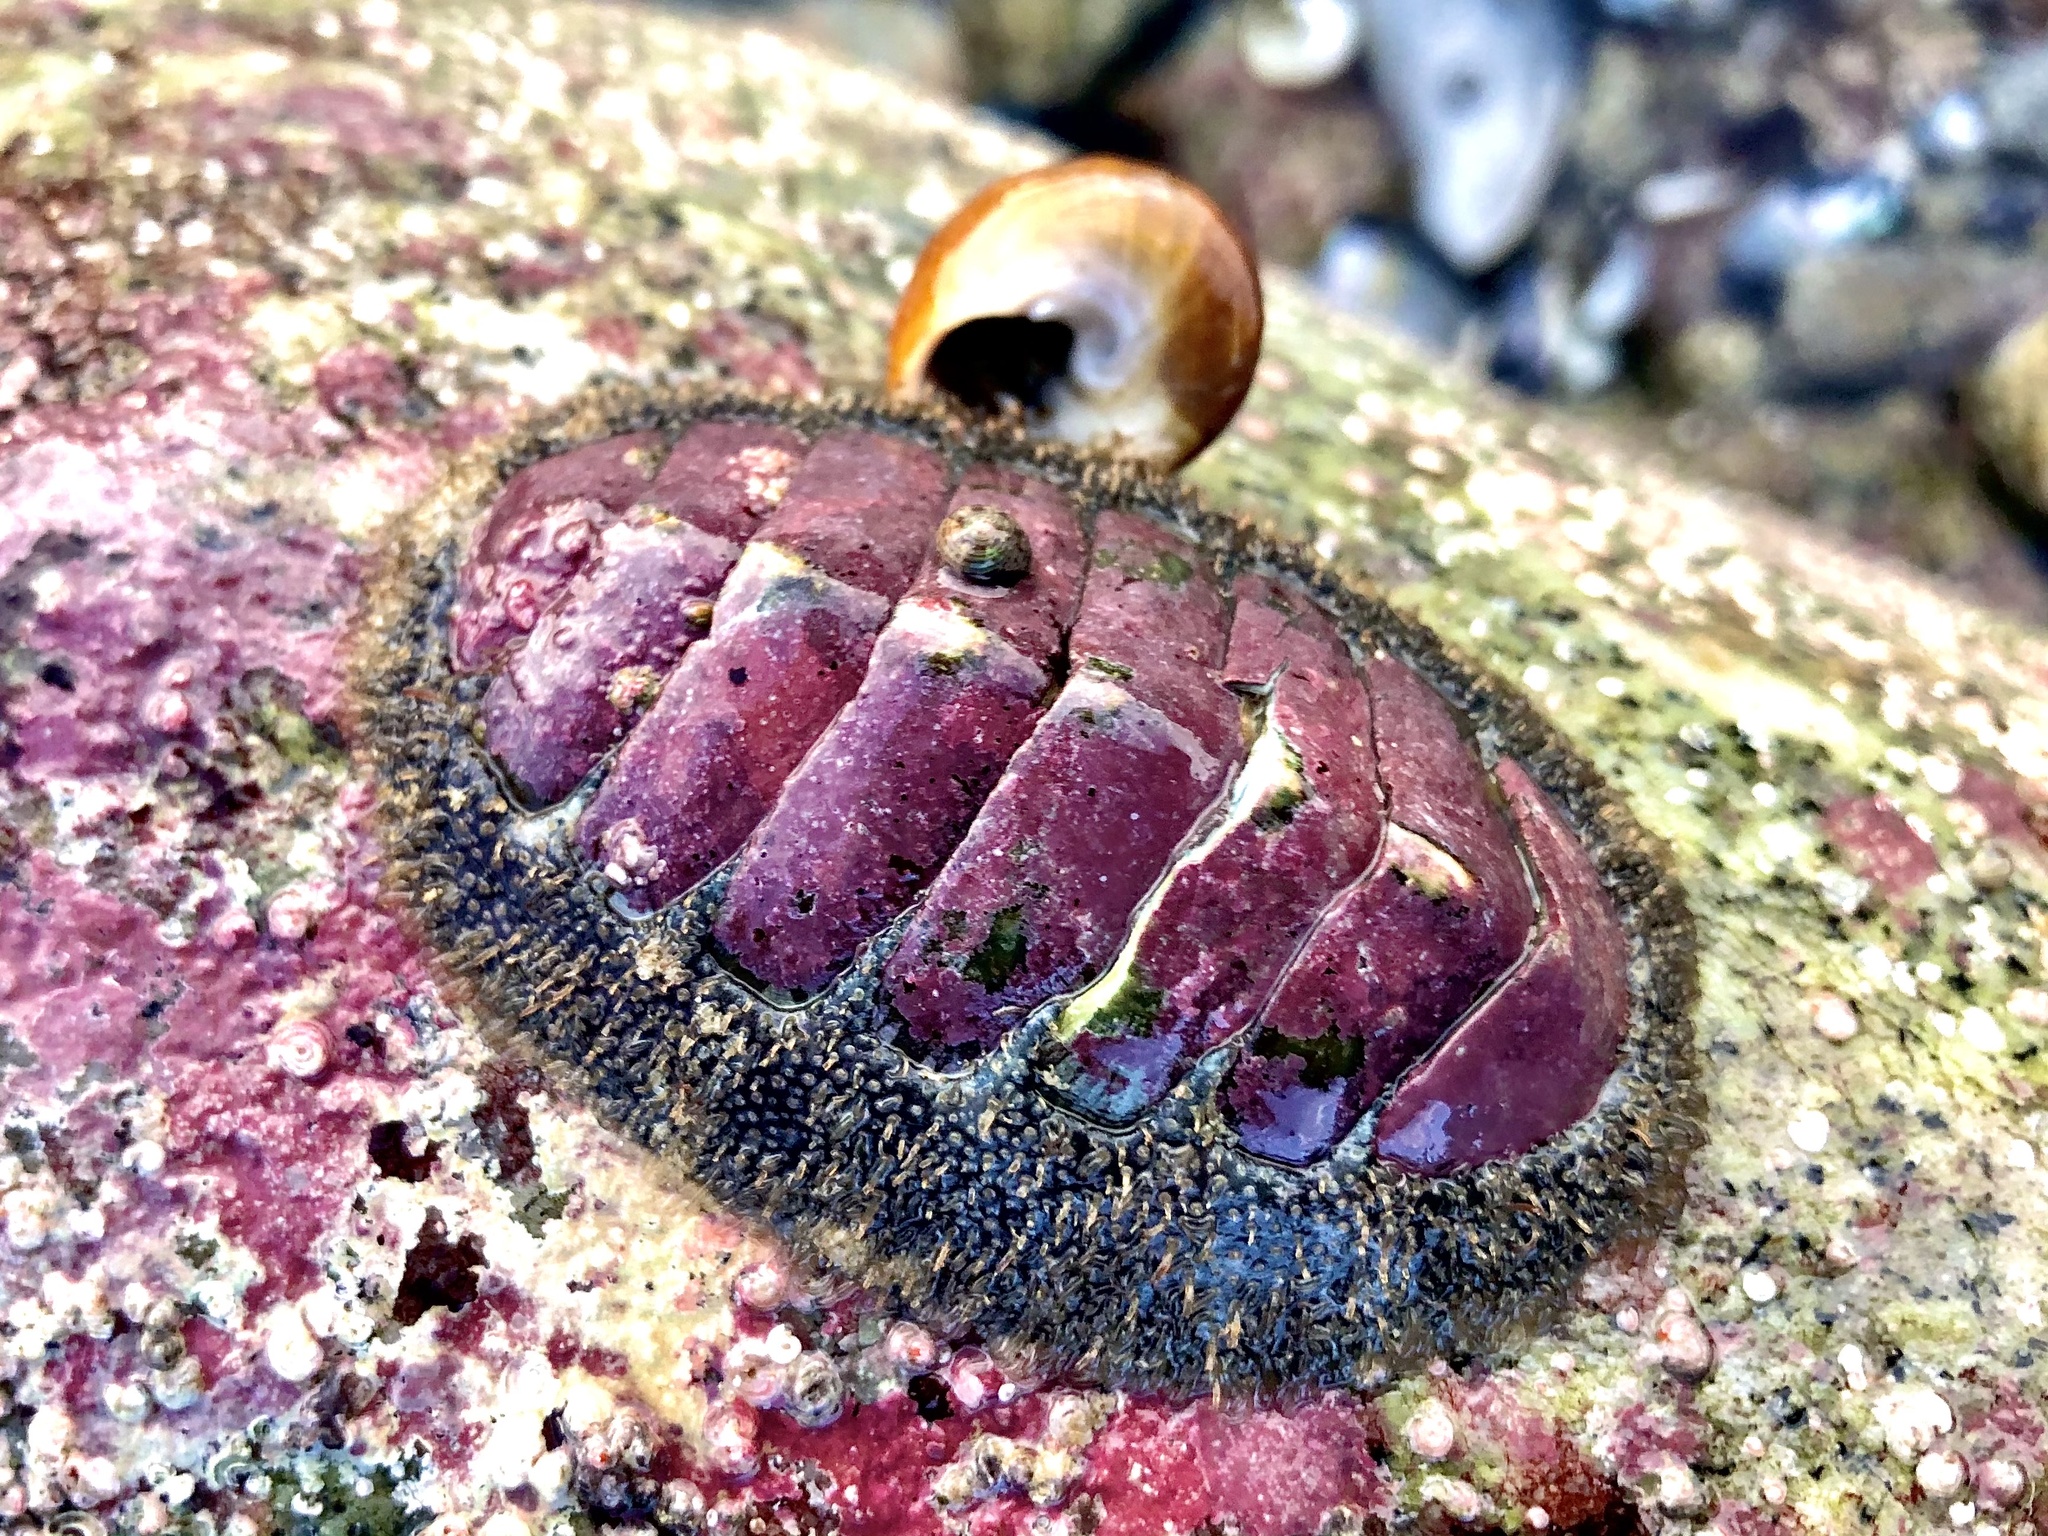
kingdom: Animalia
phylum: Mollusca
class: Polyplacophora
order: Chitonida
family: Mopaliidae
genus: Mopalia
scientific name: Mopalia muscosa
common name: Mossy chiton
